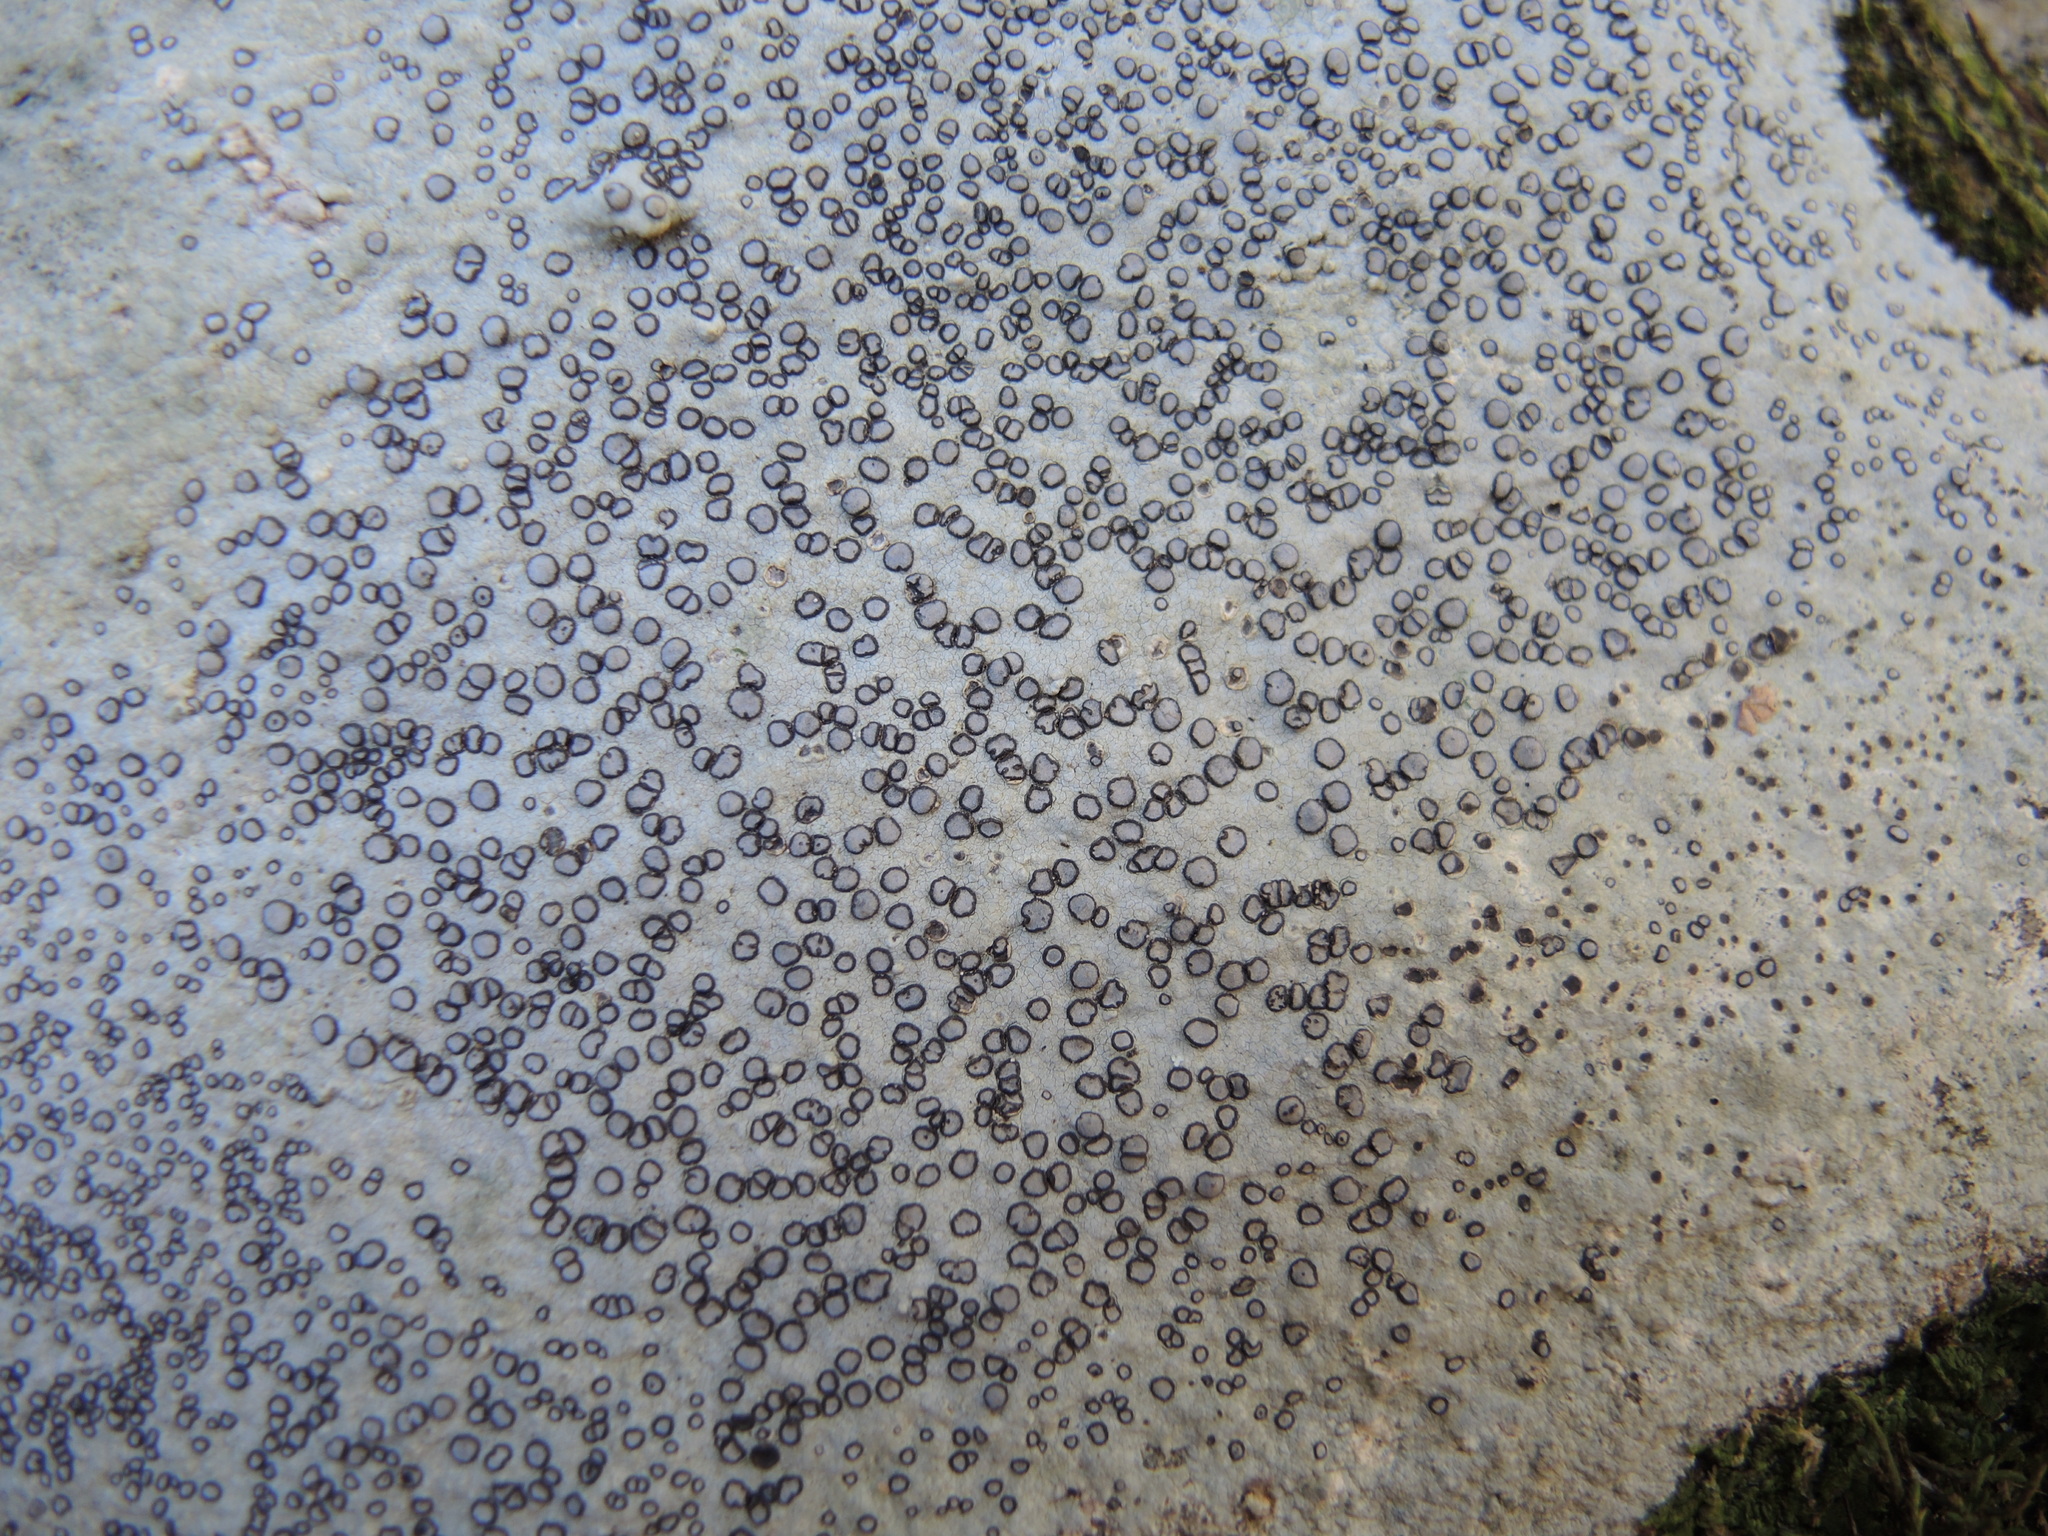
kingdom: Fungi
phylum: Ascomycota
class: Lecanoromycetes
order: Lecideales
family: Lecideaceae
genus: Porpidia
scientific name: Porpidia albocaerulescens
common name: Smokey-eyed boulder lichen
